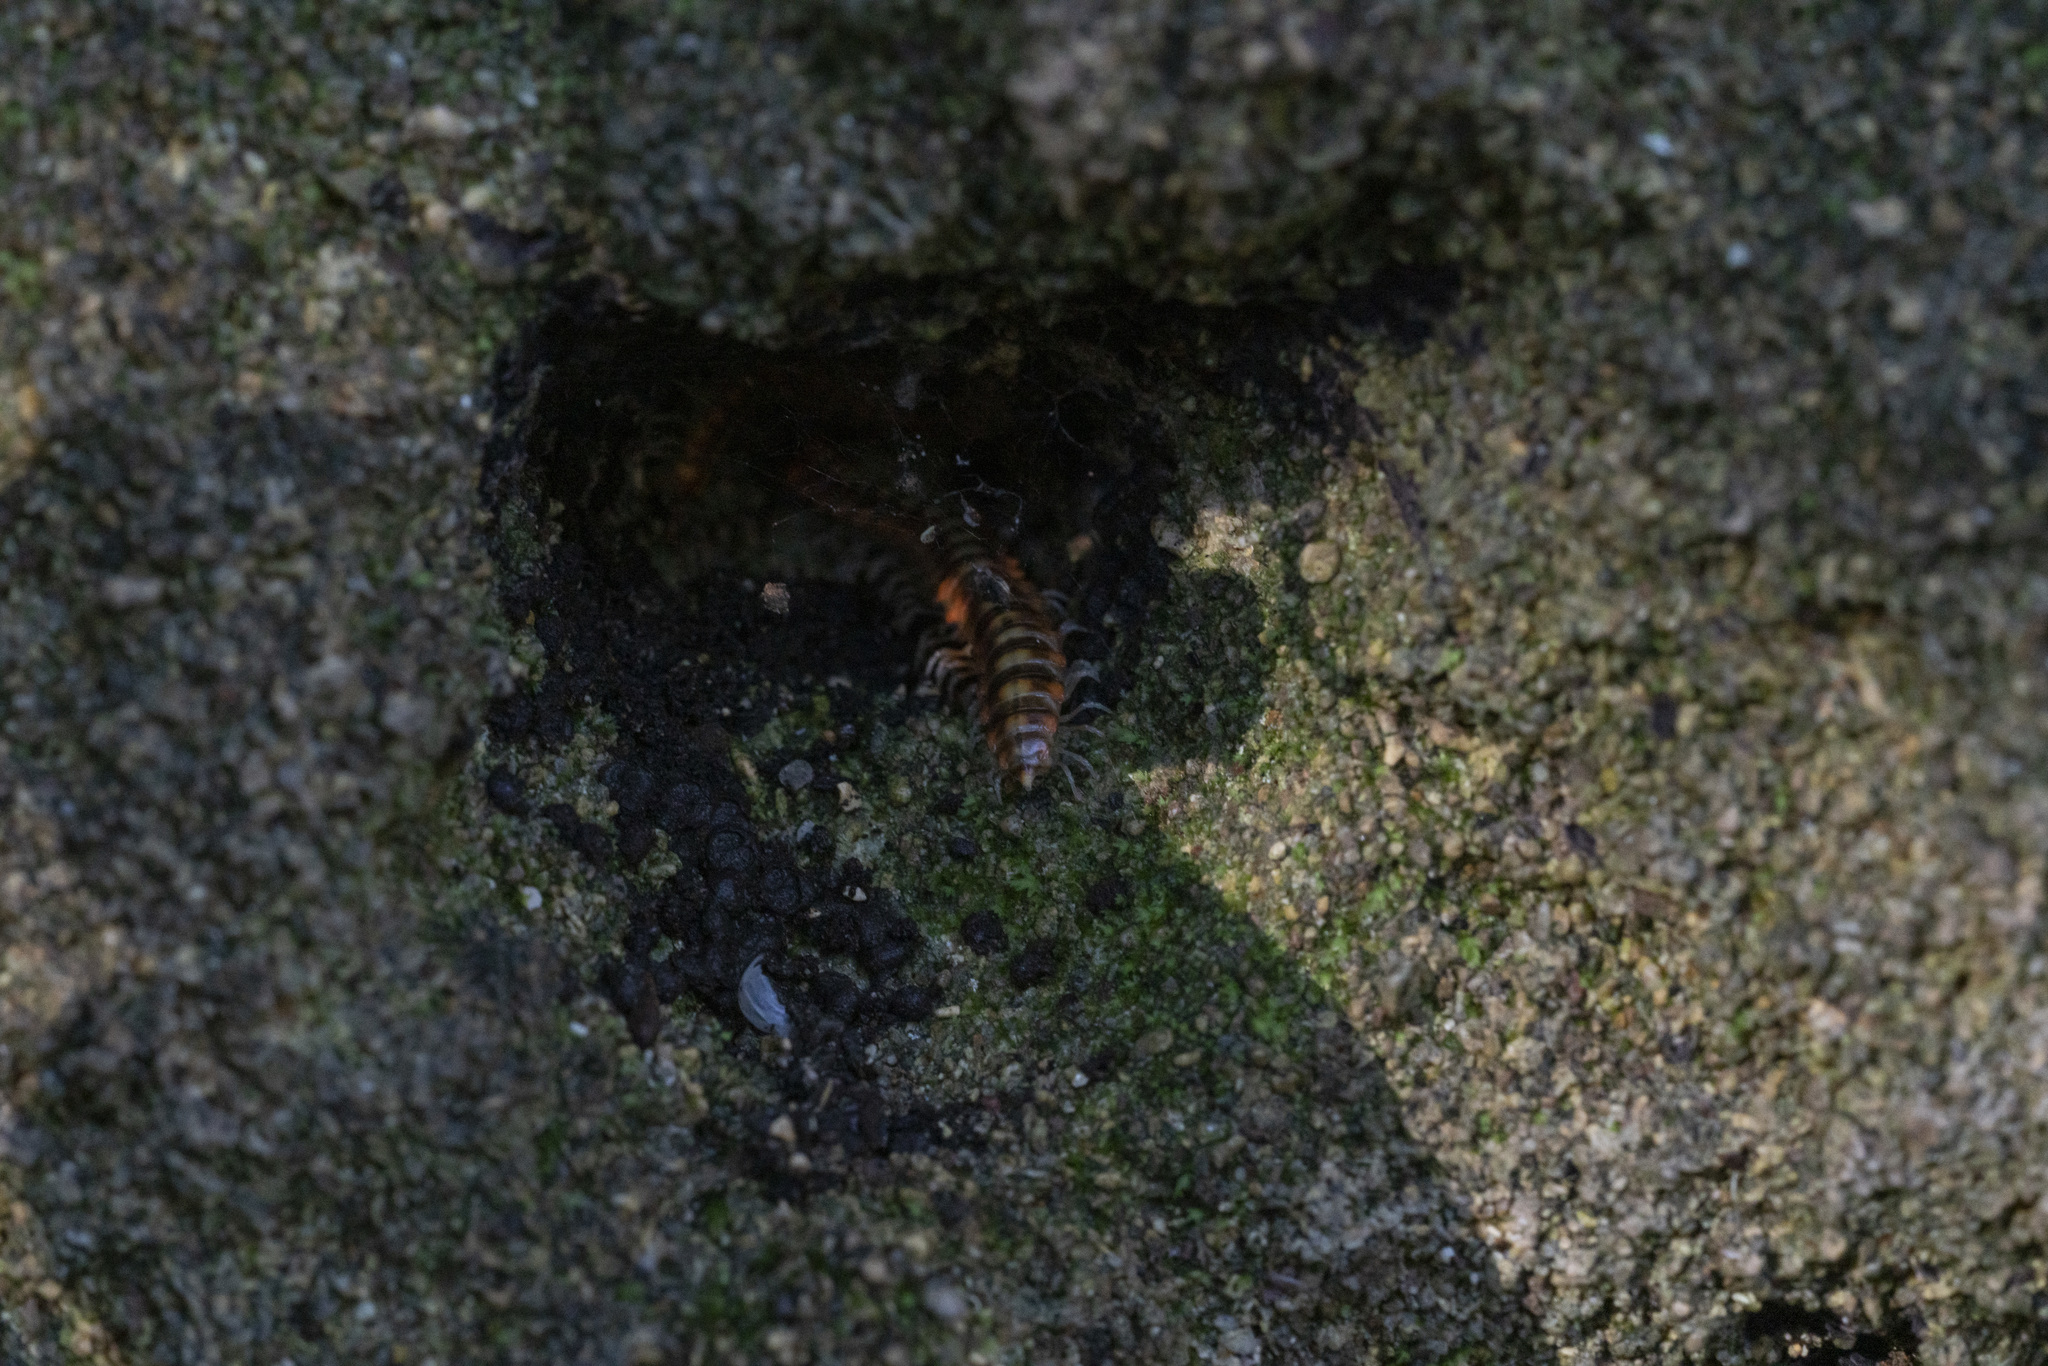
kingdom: Animalia
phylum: Arthropoda
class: Diplopoda
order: Polydesmida
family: Xystodesmidae
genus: Melaphe
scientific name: Melaphe vestita
